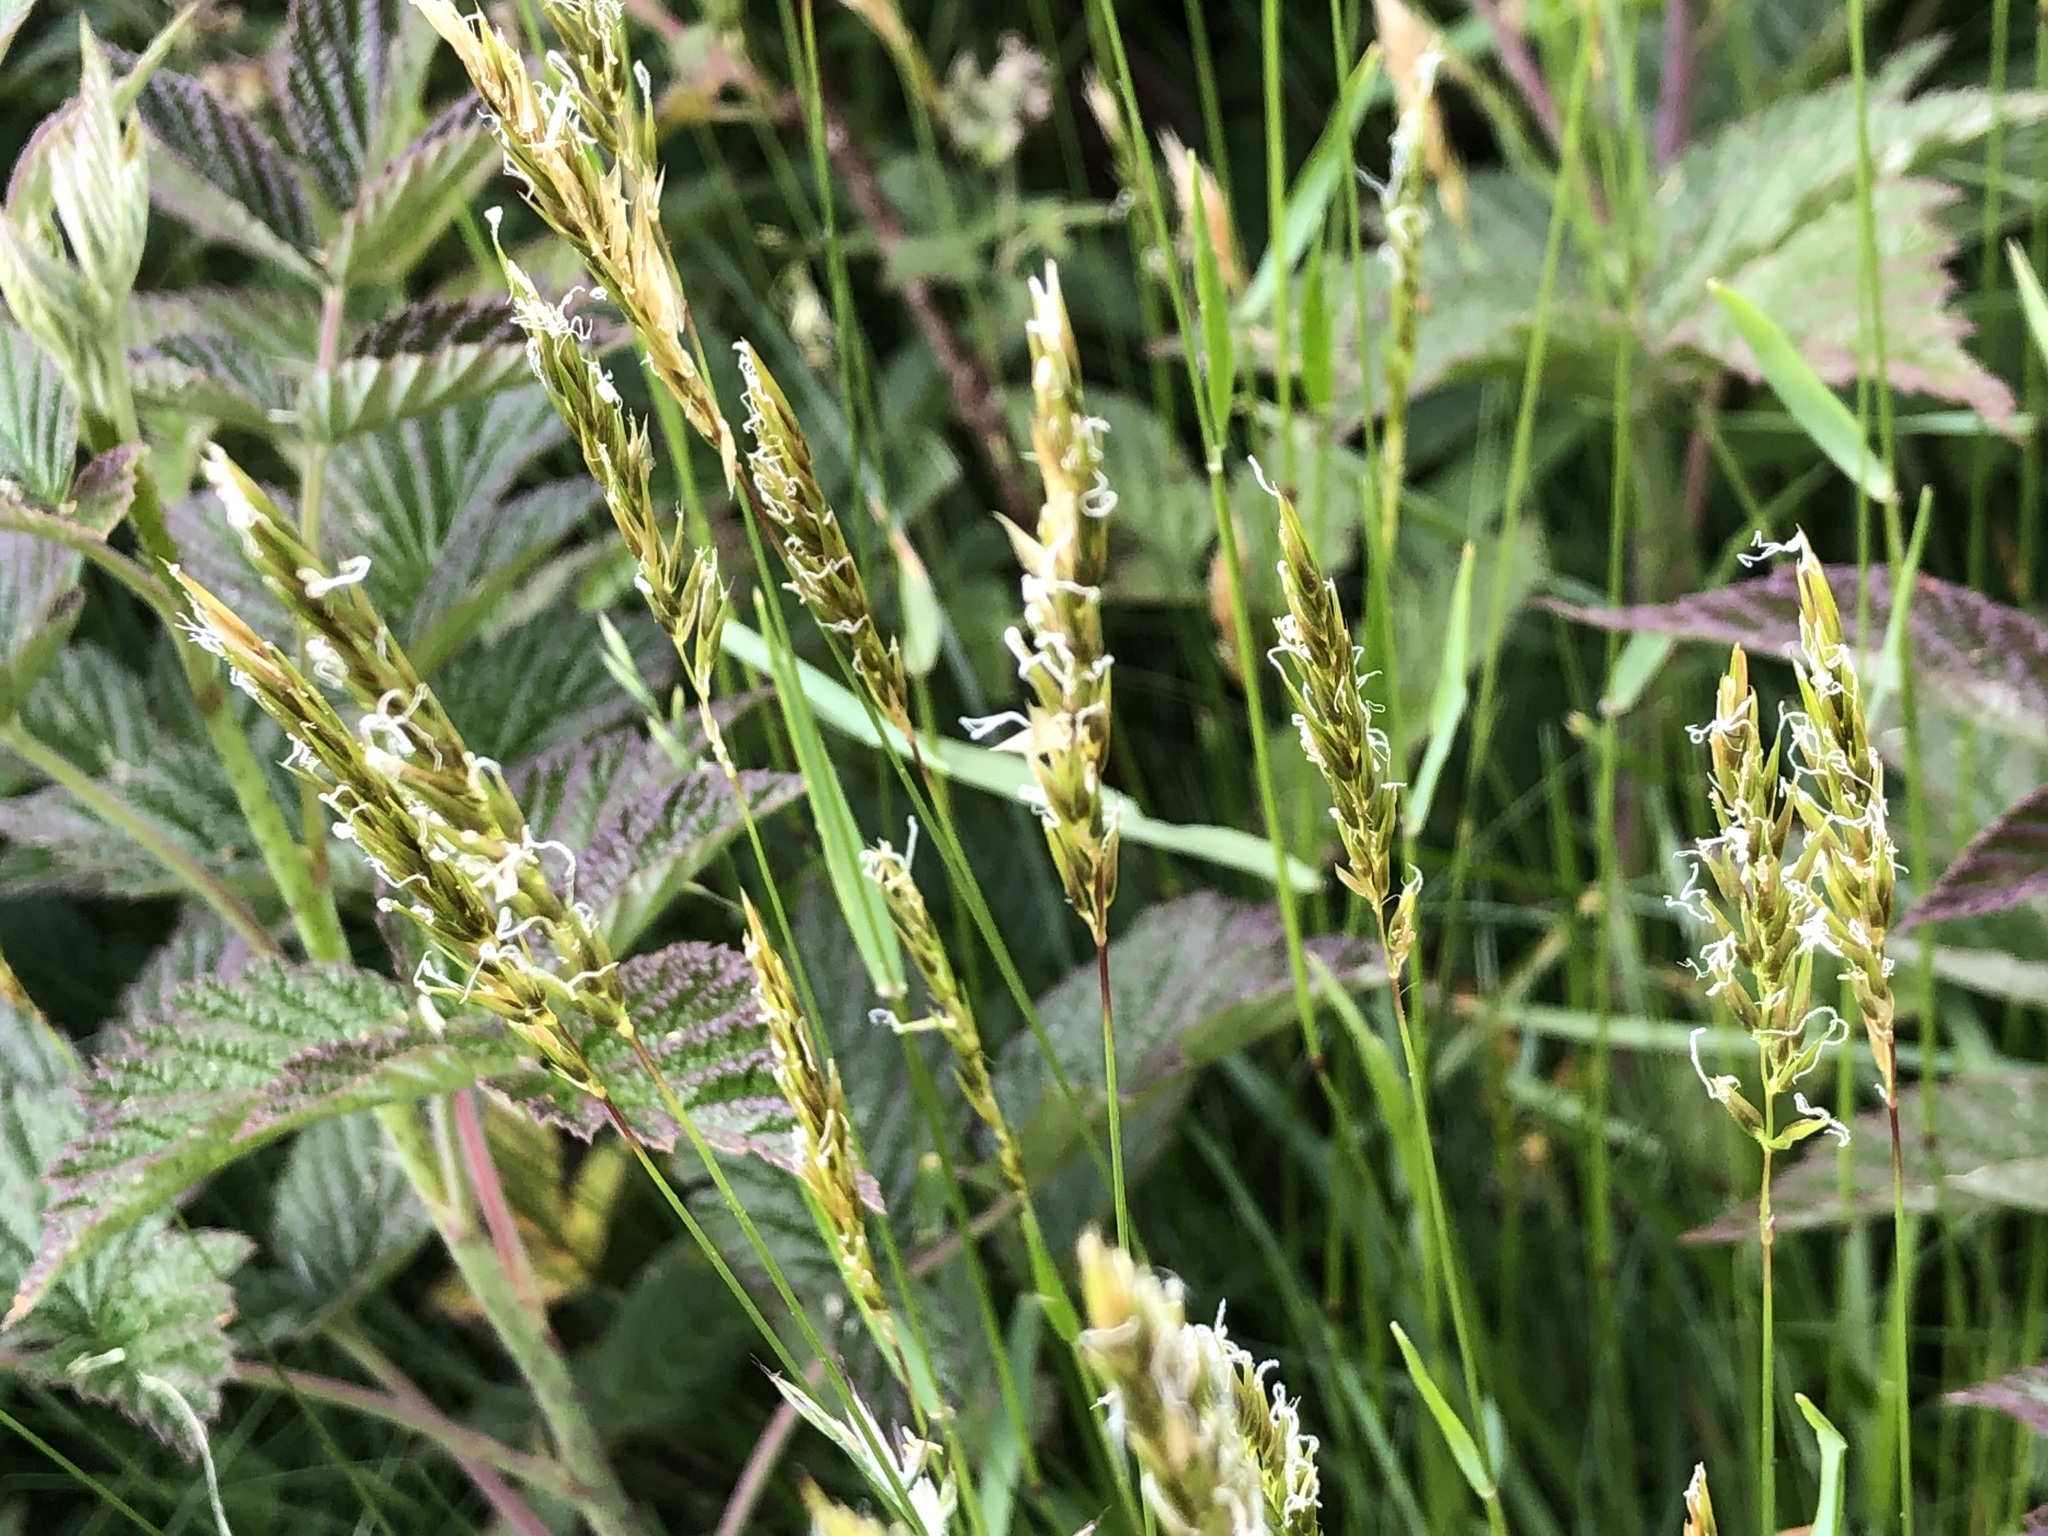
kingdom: Plantae
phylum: Tracheophyta
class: Liliopsida
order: Poales
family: Poaceae
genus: Anthoxanthum
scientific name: Anthoxanthum odoratum
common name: Sweet vernalgrass
